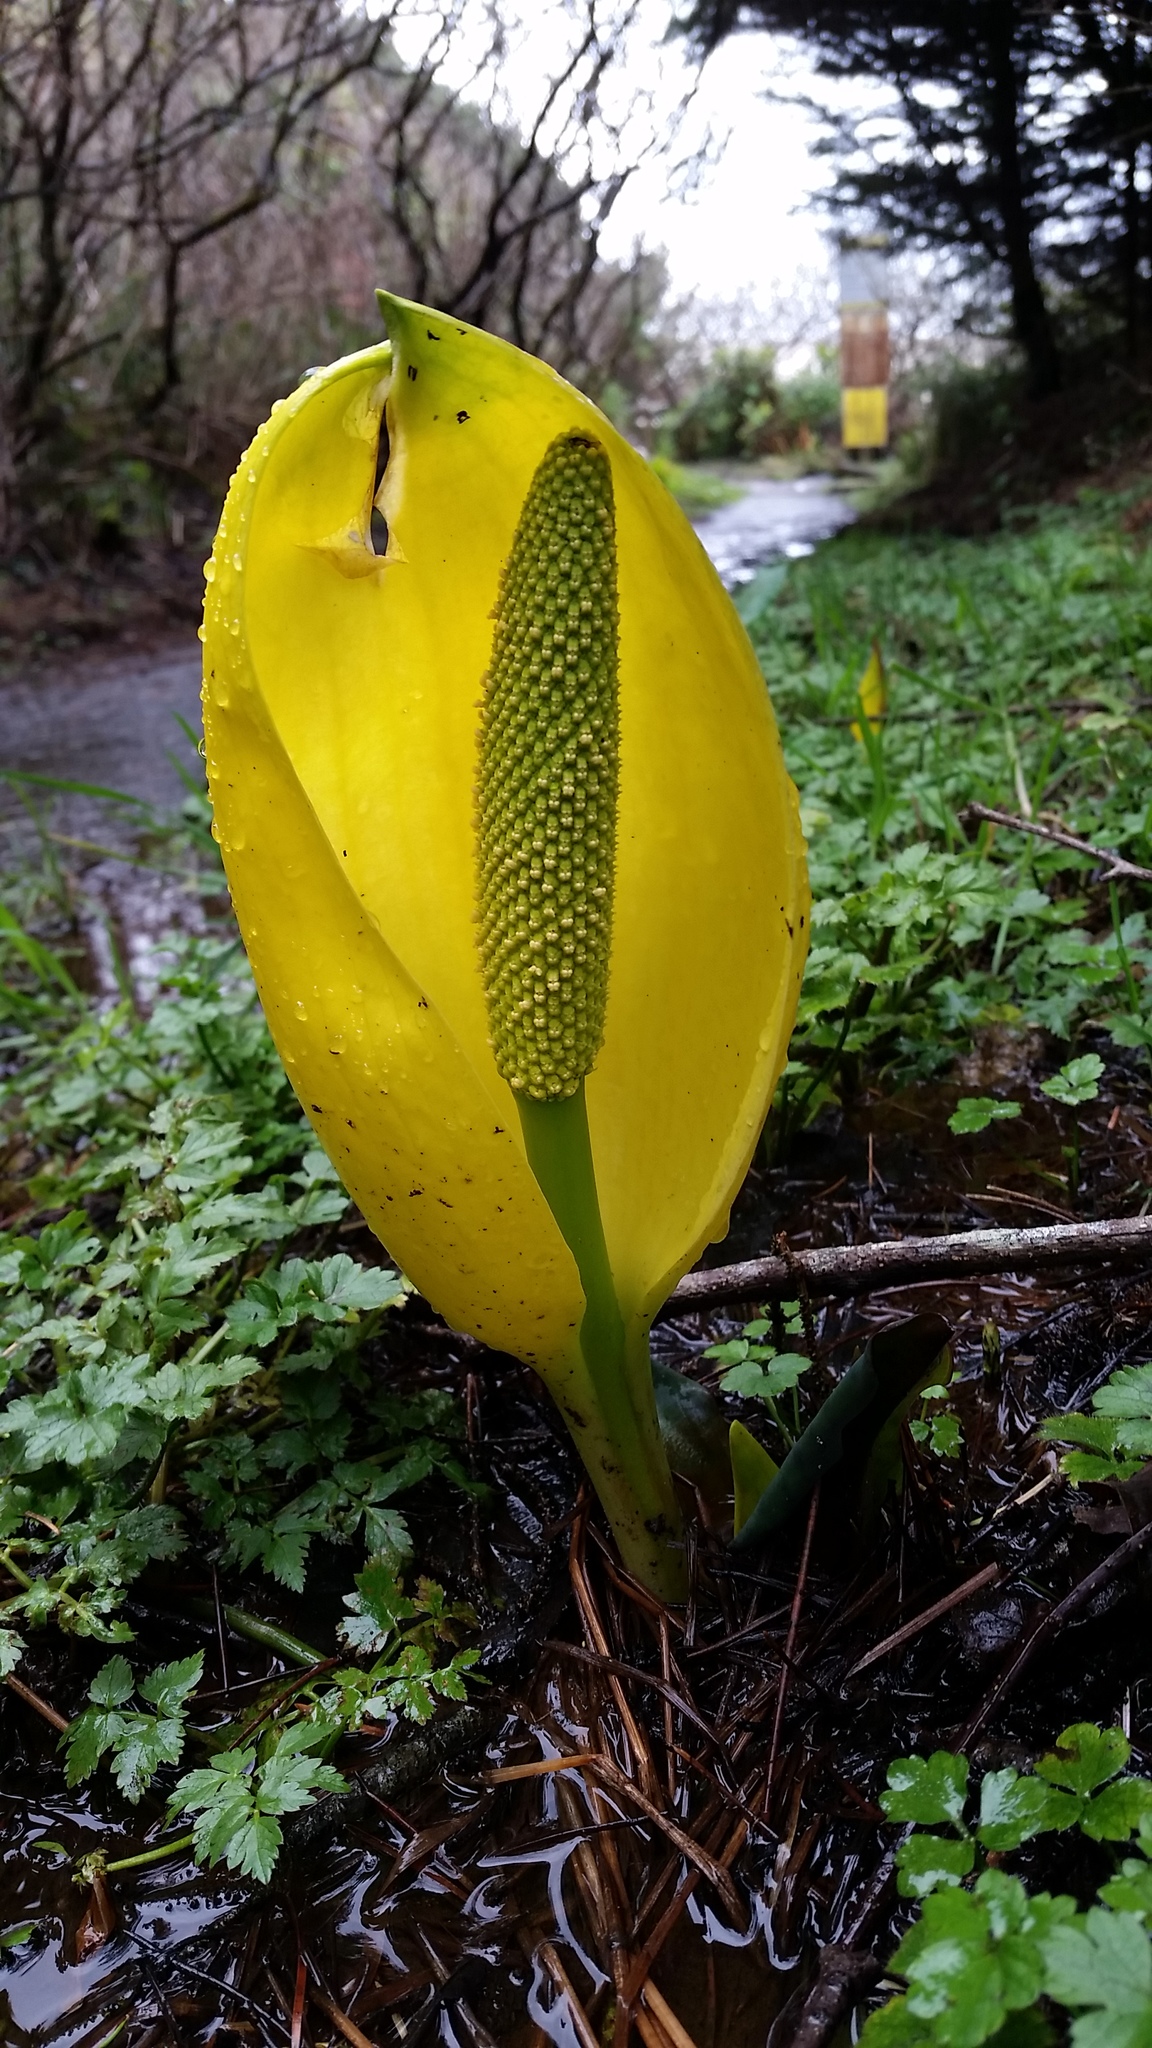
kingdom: Plantae
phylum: Tracheophyta
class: Liliopsida
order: Alismatales
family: Araceae
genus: Lysichiton
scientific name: Lysichiton americanus
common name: American skunk cabbage
